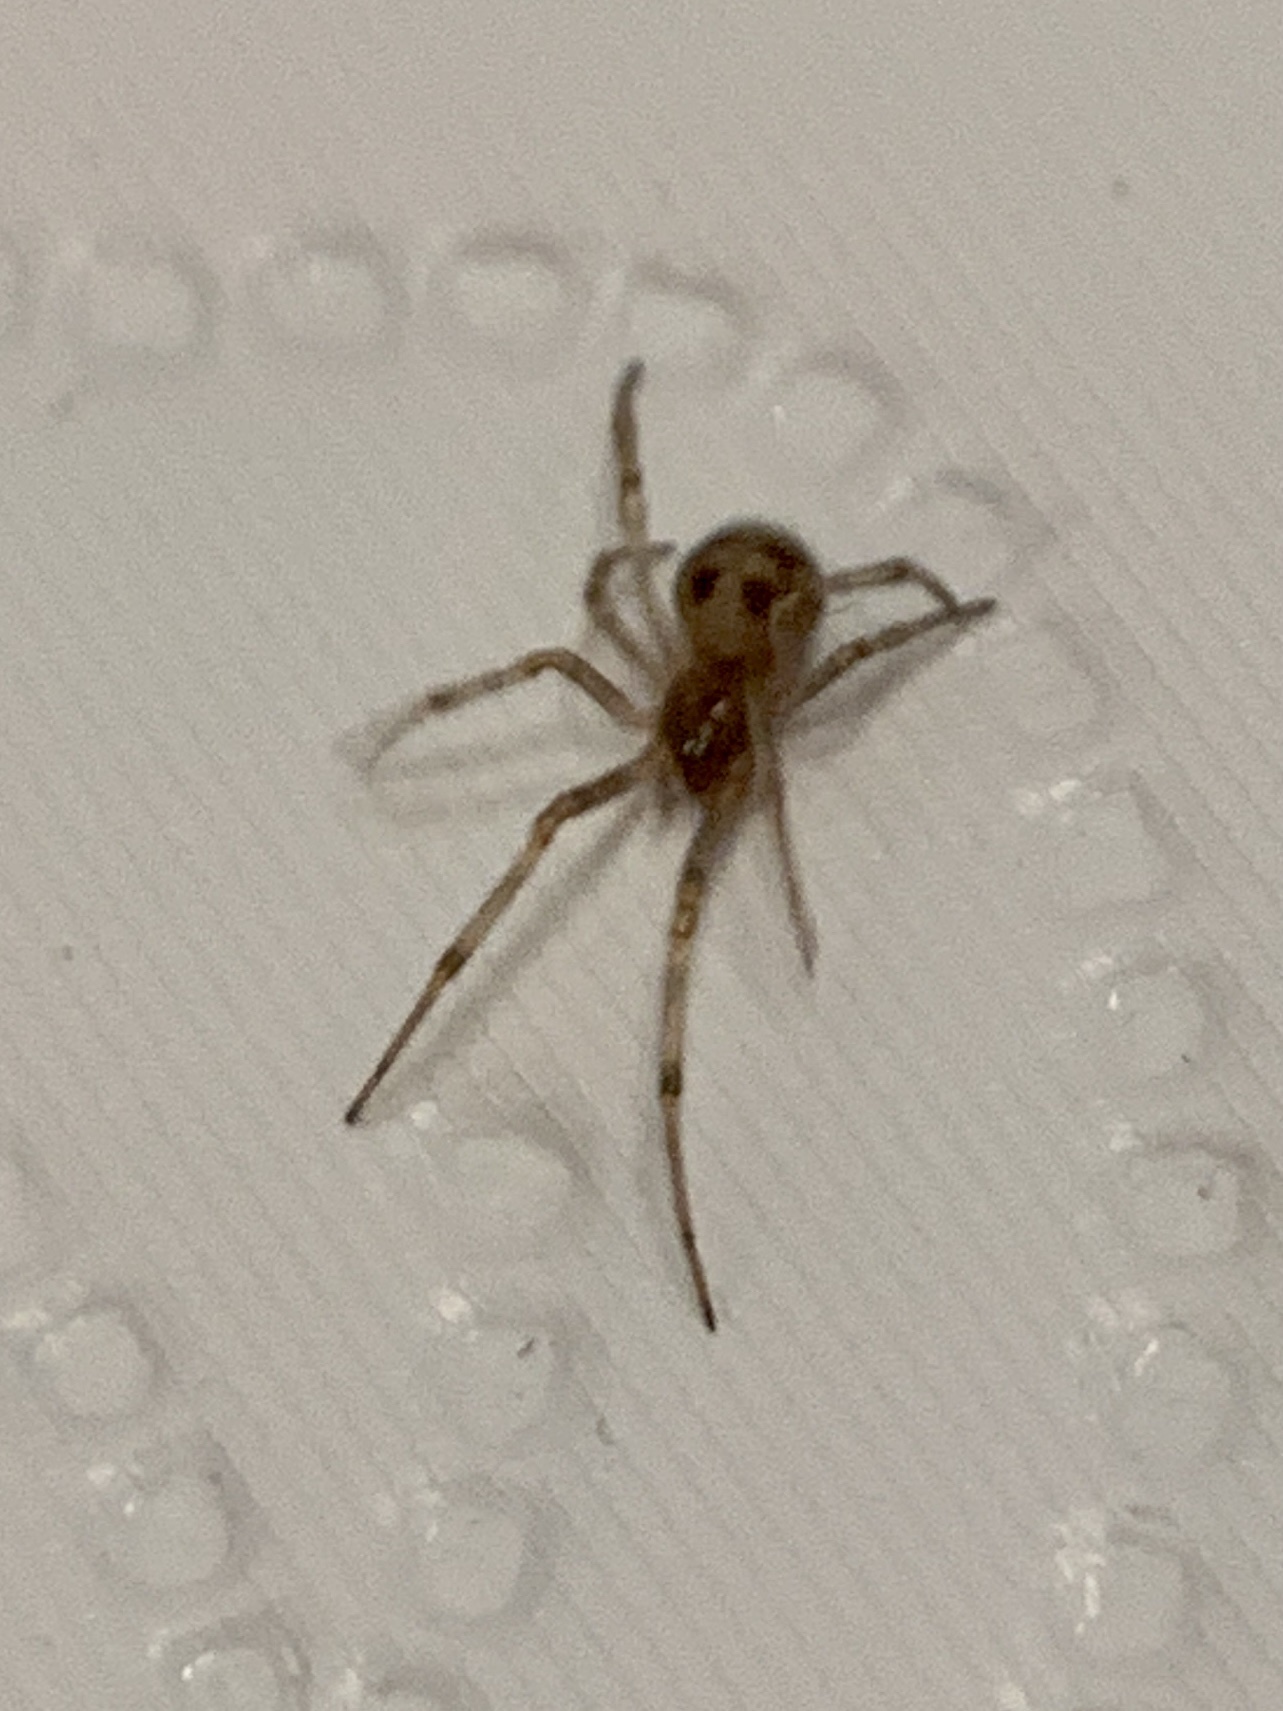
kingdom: Animalia
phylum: Arthropoda
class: Arachnida
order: Araneae
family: Theridiidae
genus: Steatoda
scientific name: Steatoda triangulosa
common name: Triangulate bud spider
